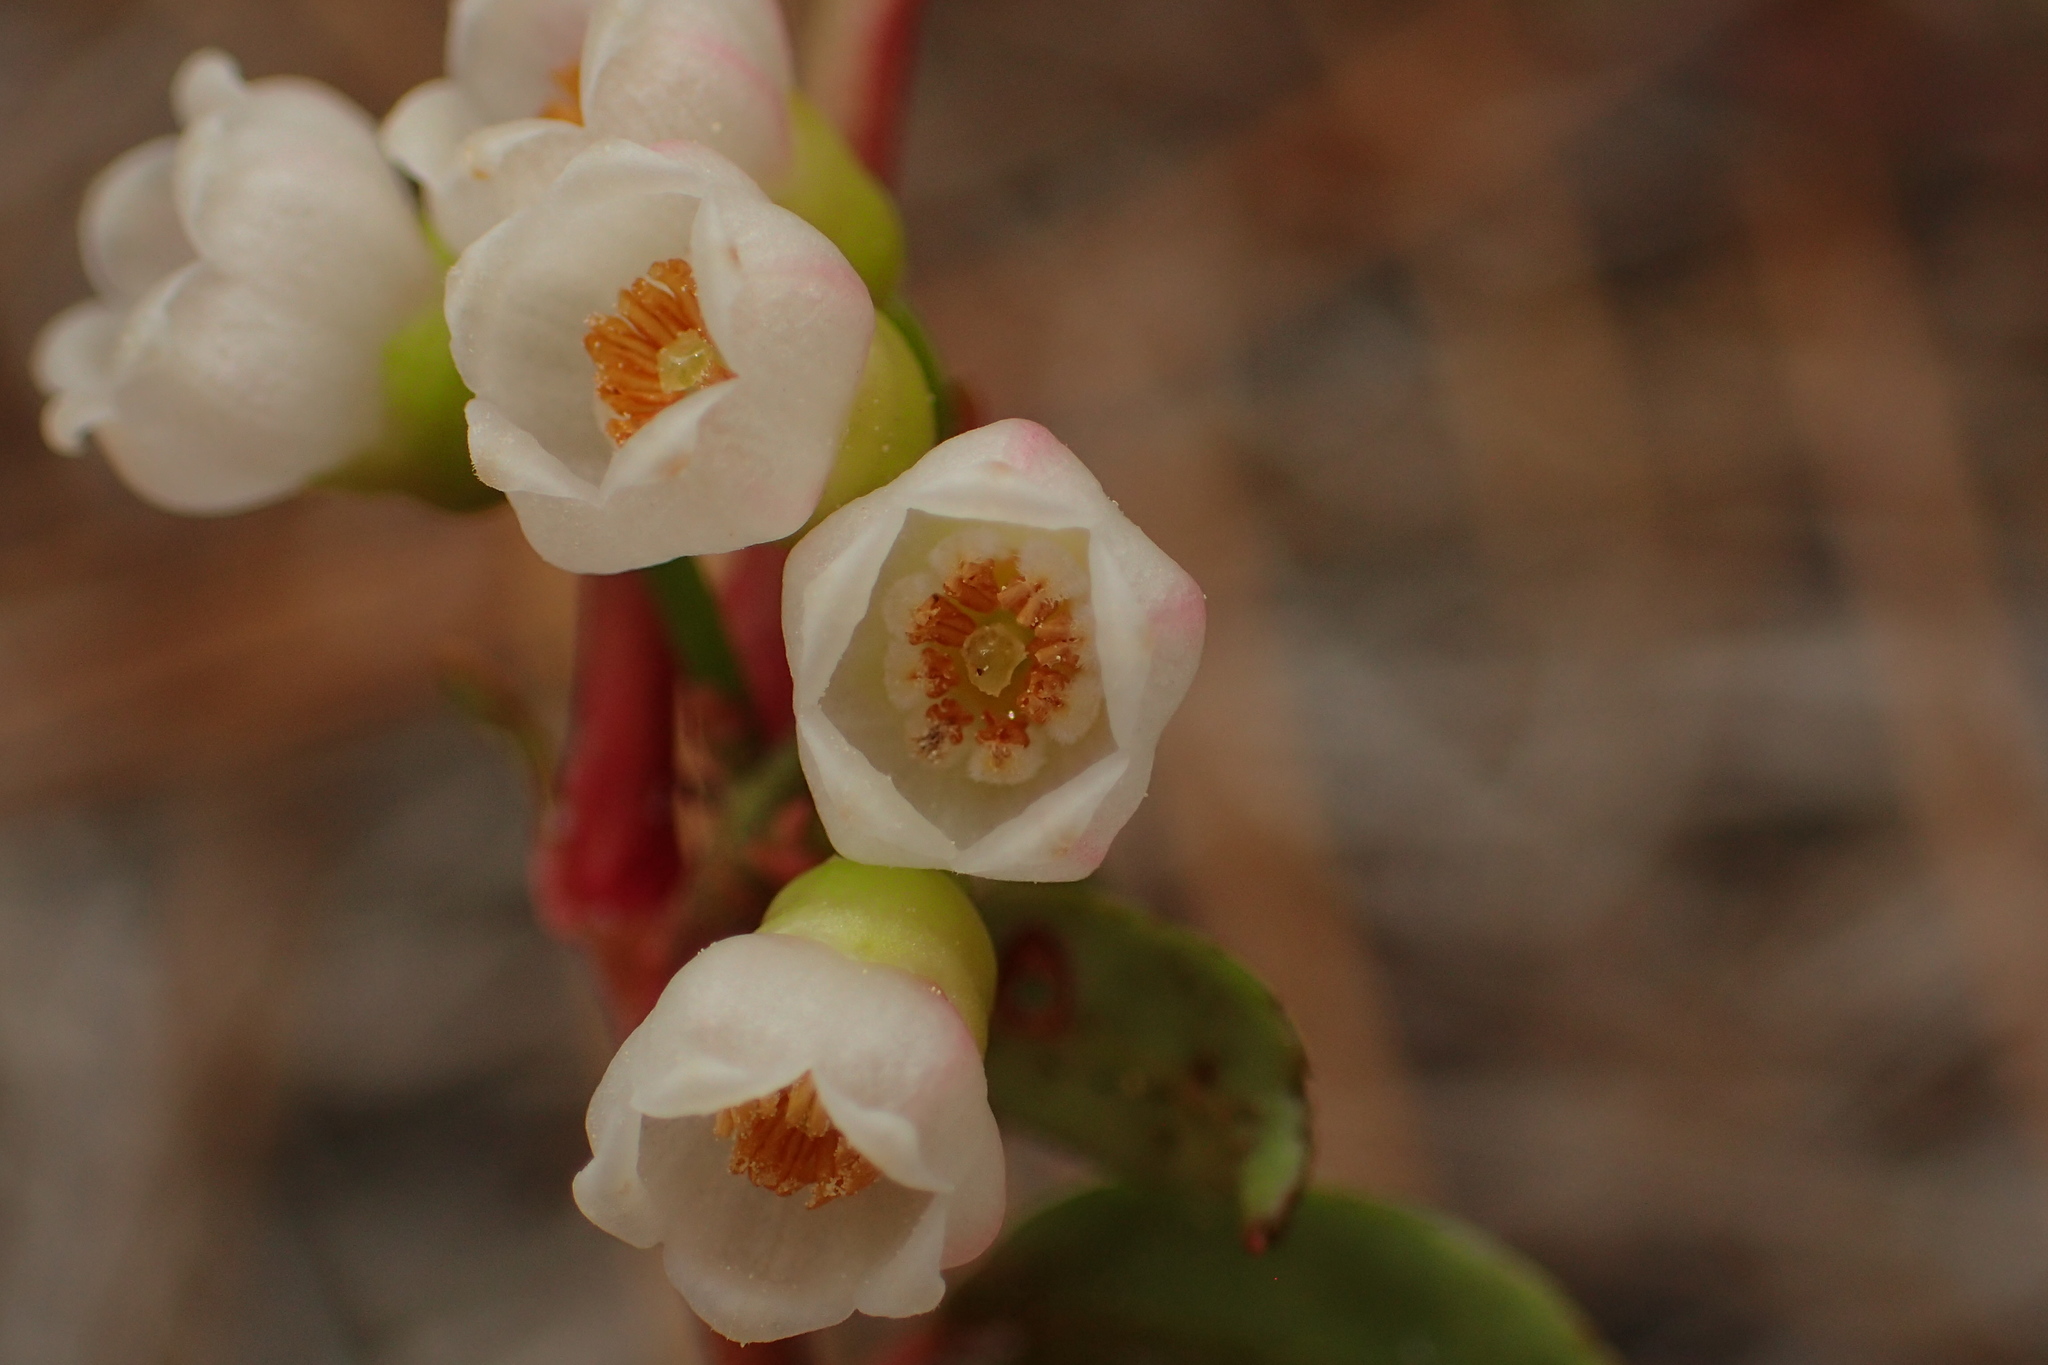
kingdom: Plantae
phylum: Tracheophyta
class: Magnoliopsida
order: Ericales
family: Ericaceae
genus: Vaccinium
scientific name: Vaccinium crassifolium
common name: Creeping blueberry
